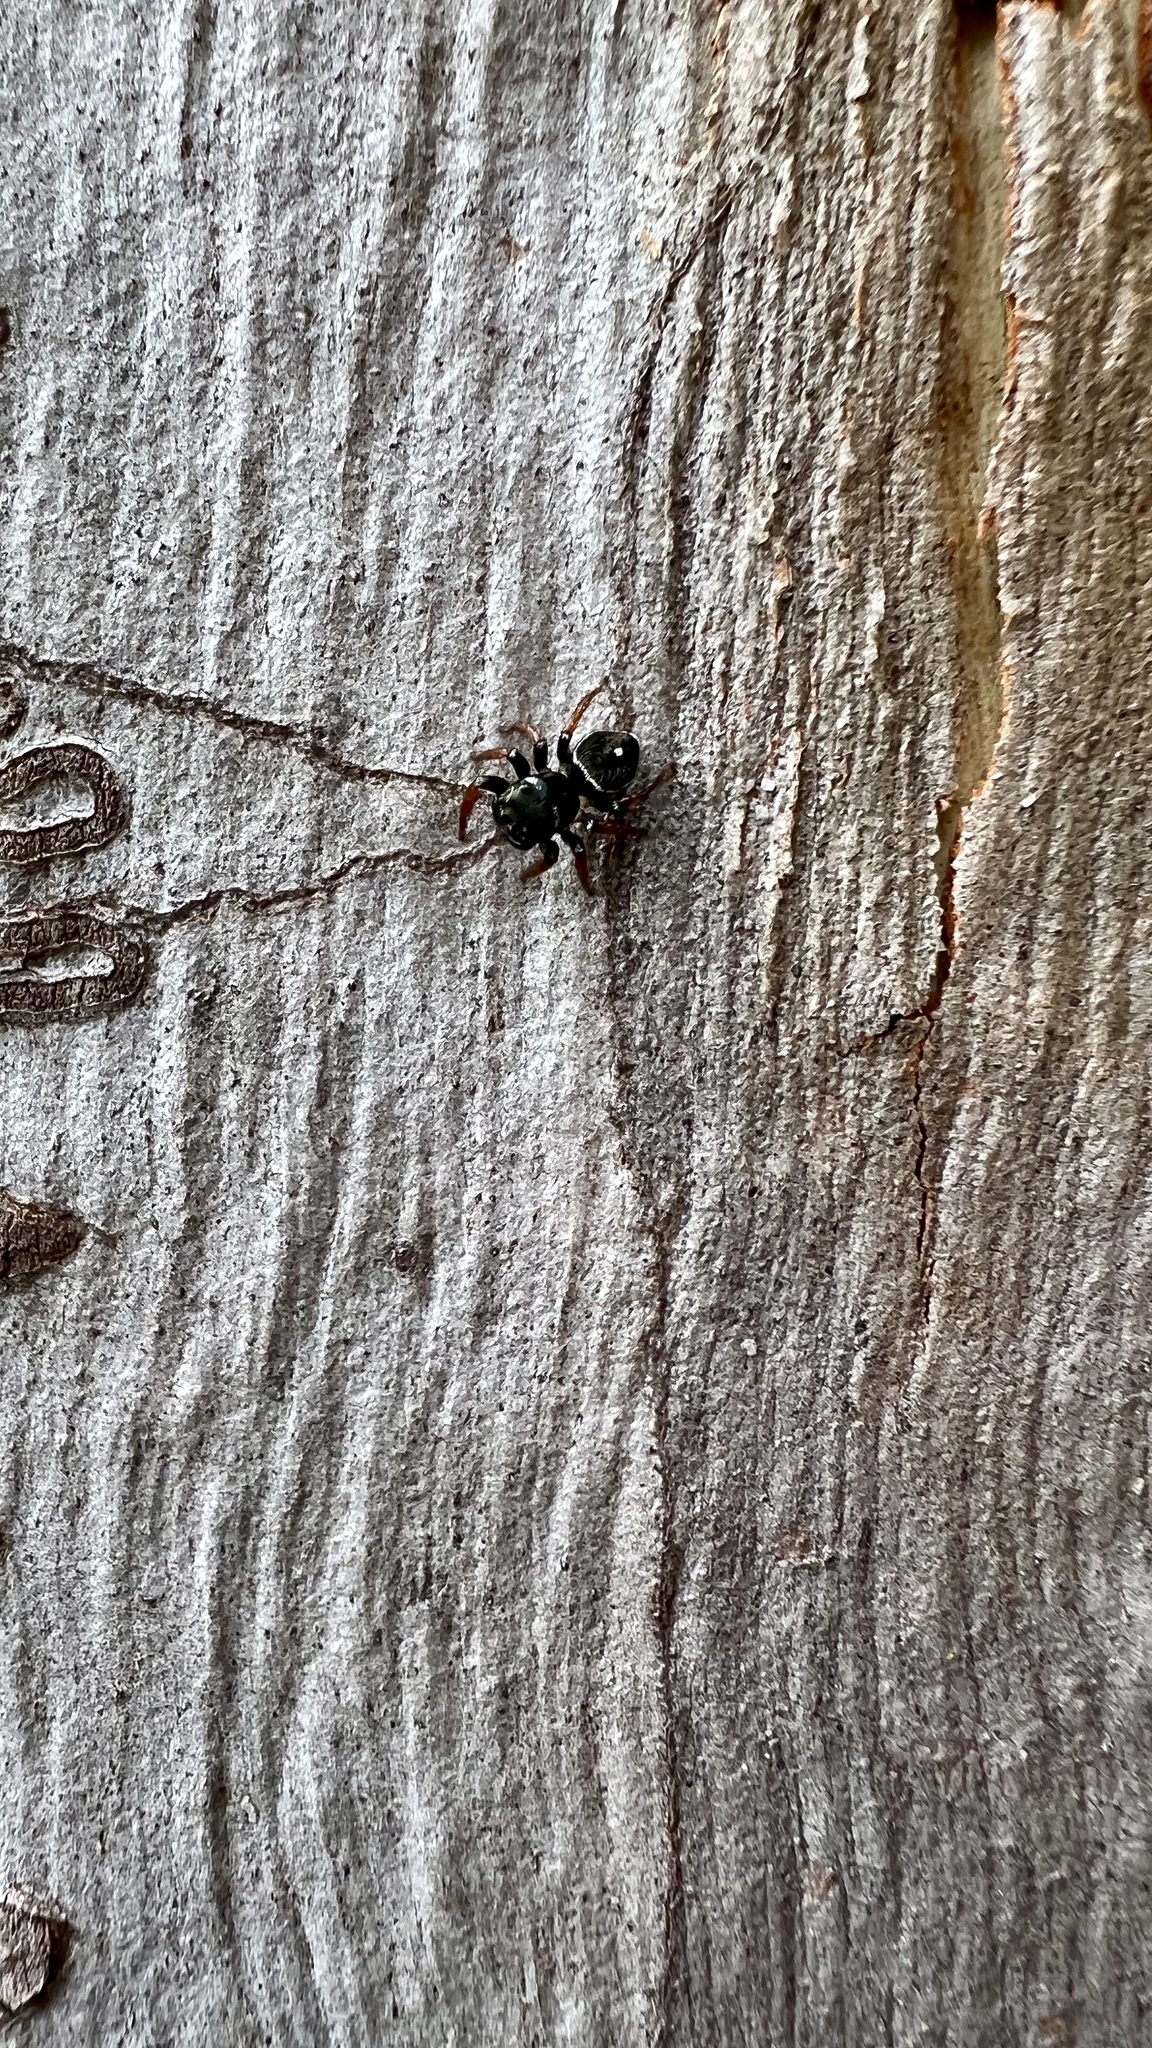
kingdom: Animalia
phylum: Arthropoda
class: Arachnida
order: Araneae
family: Salticidae
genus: Zenodorus
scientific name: Zenodorus orbiculatus
